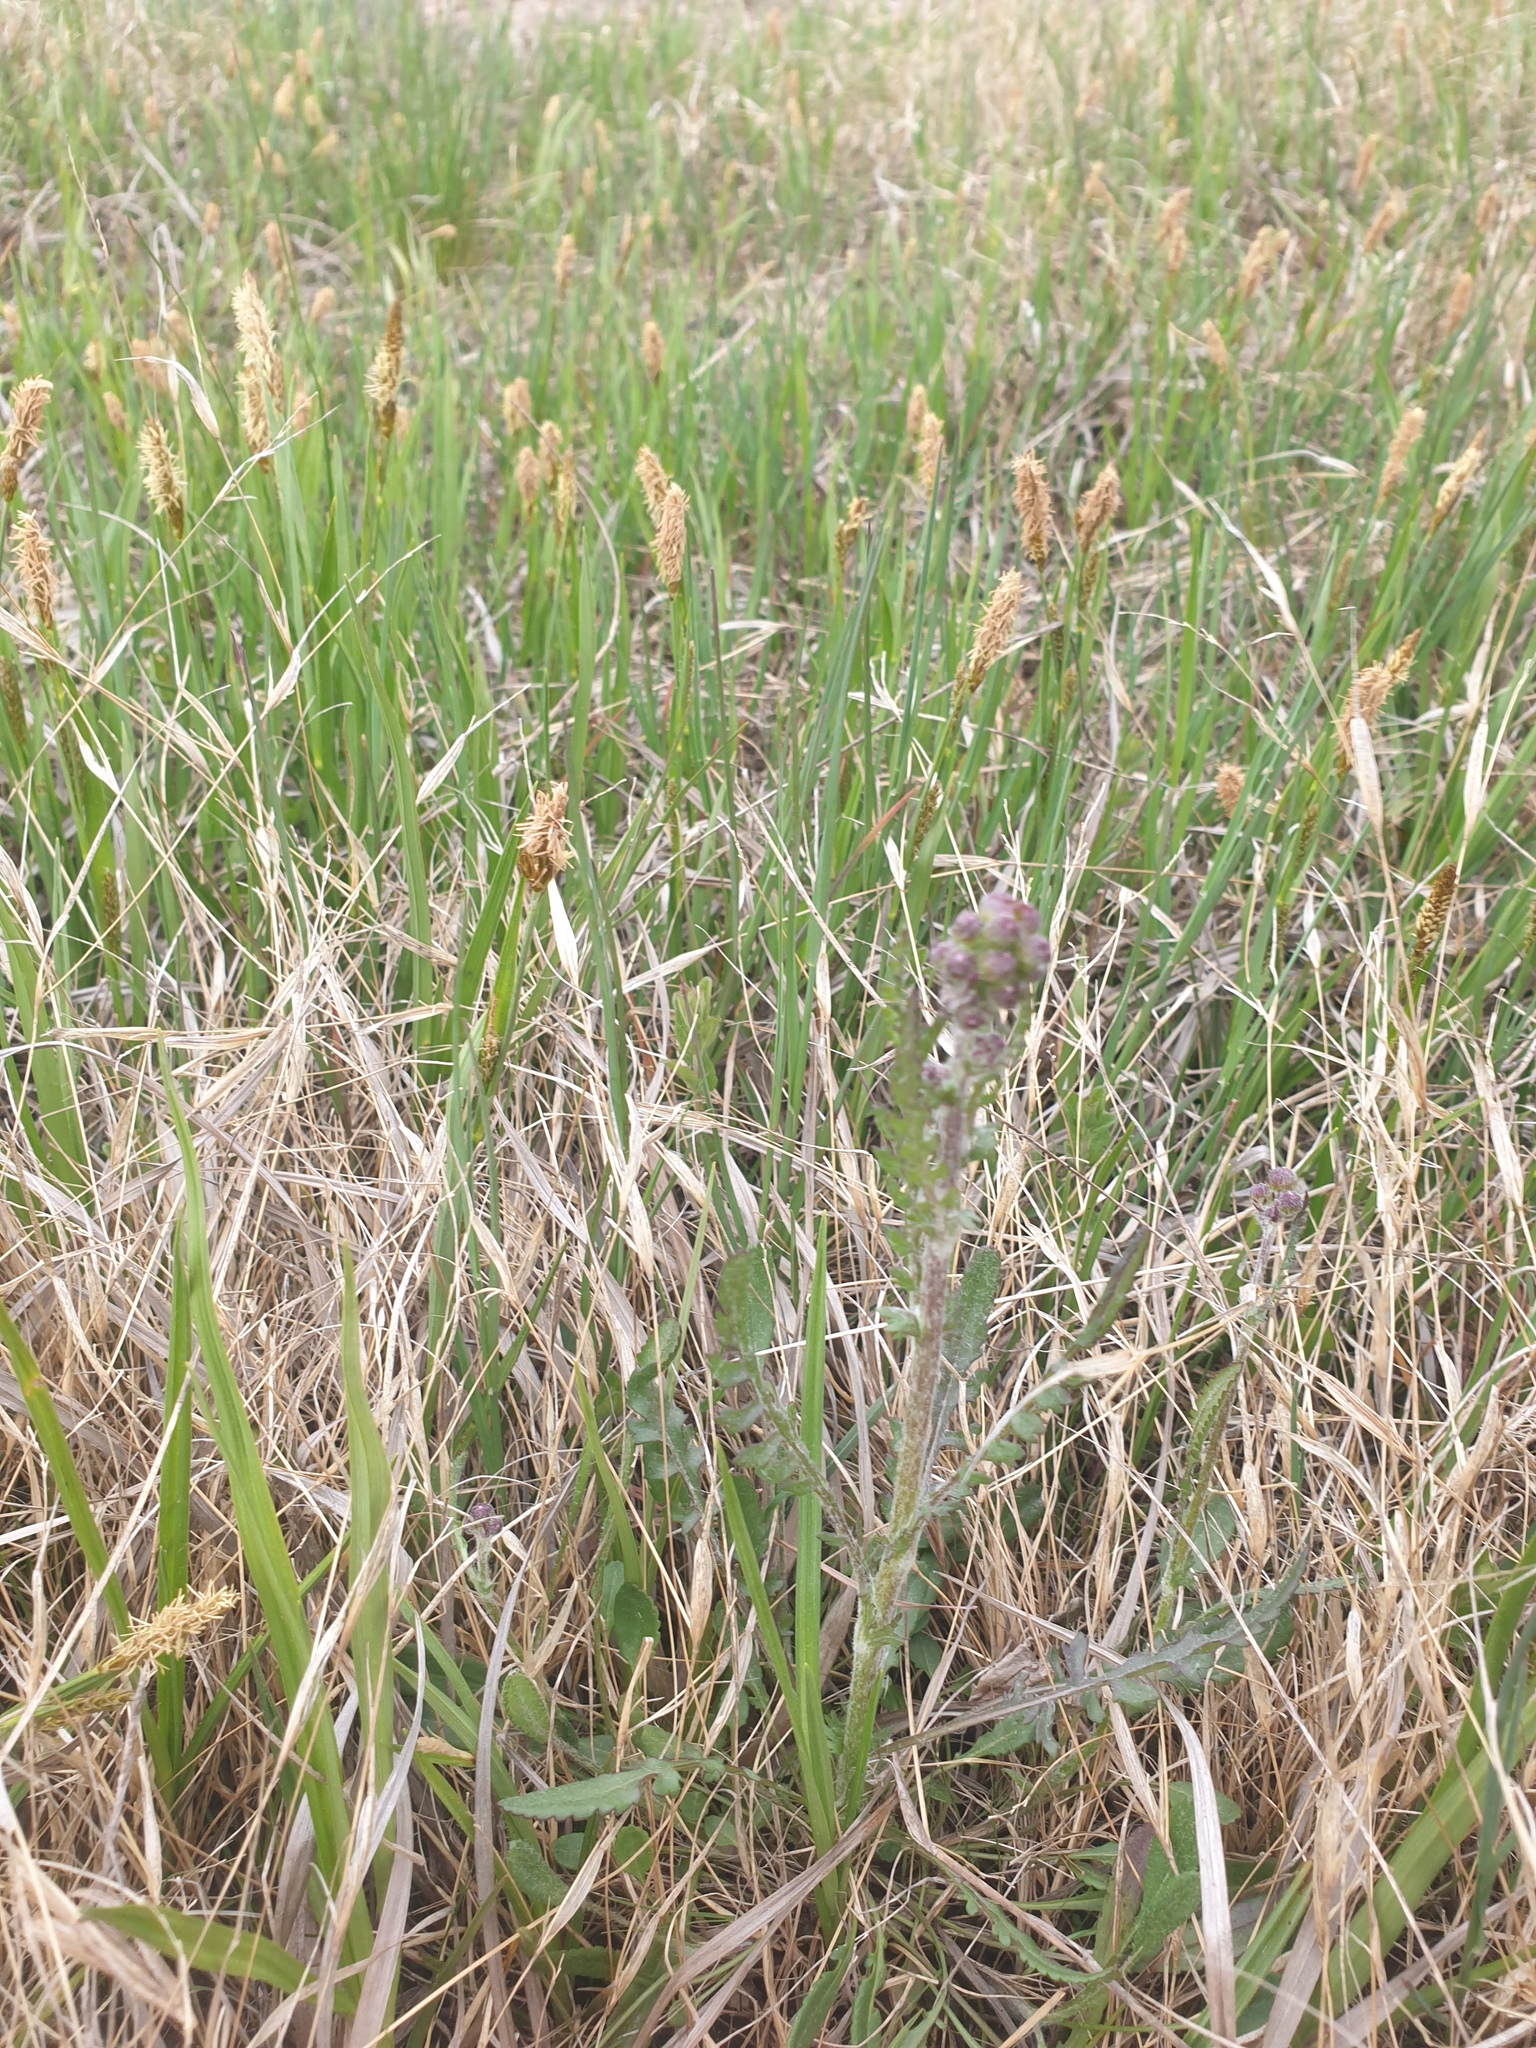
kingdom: Plantae
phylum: Tracheophyta
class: Magnoliopsida
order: Asterales
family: Asteraceae
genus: Packera
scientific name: Packera paupercula
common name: Balsam groundsel
